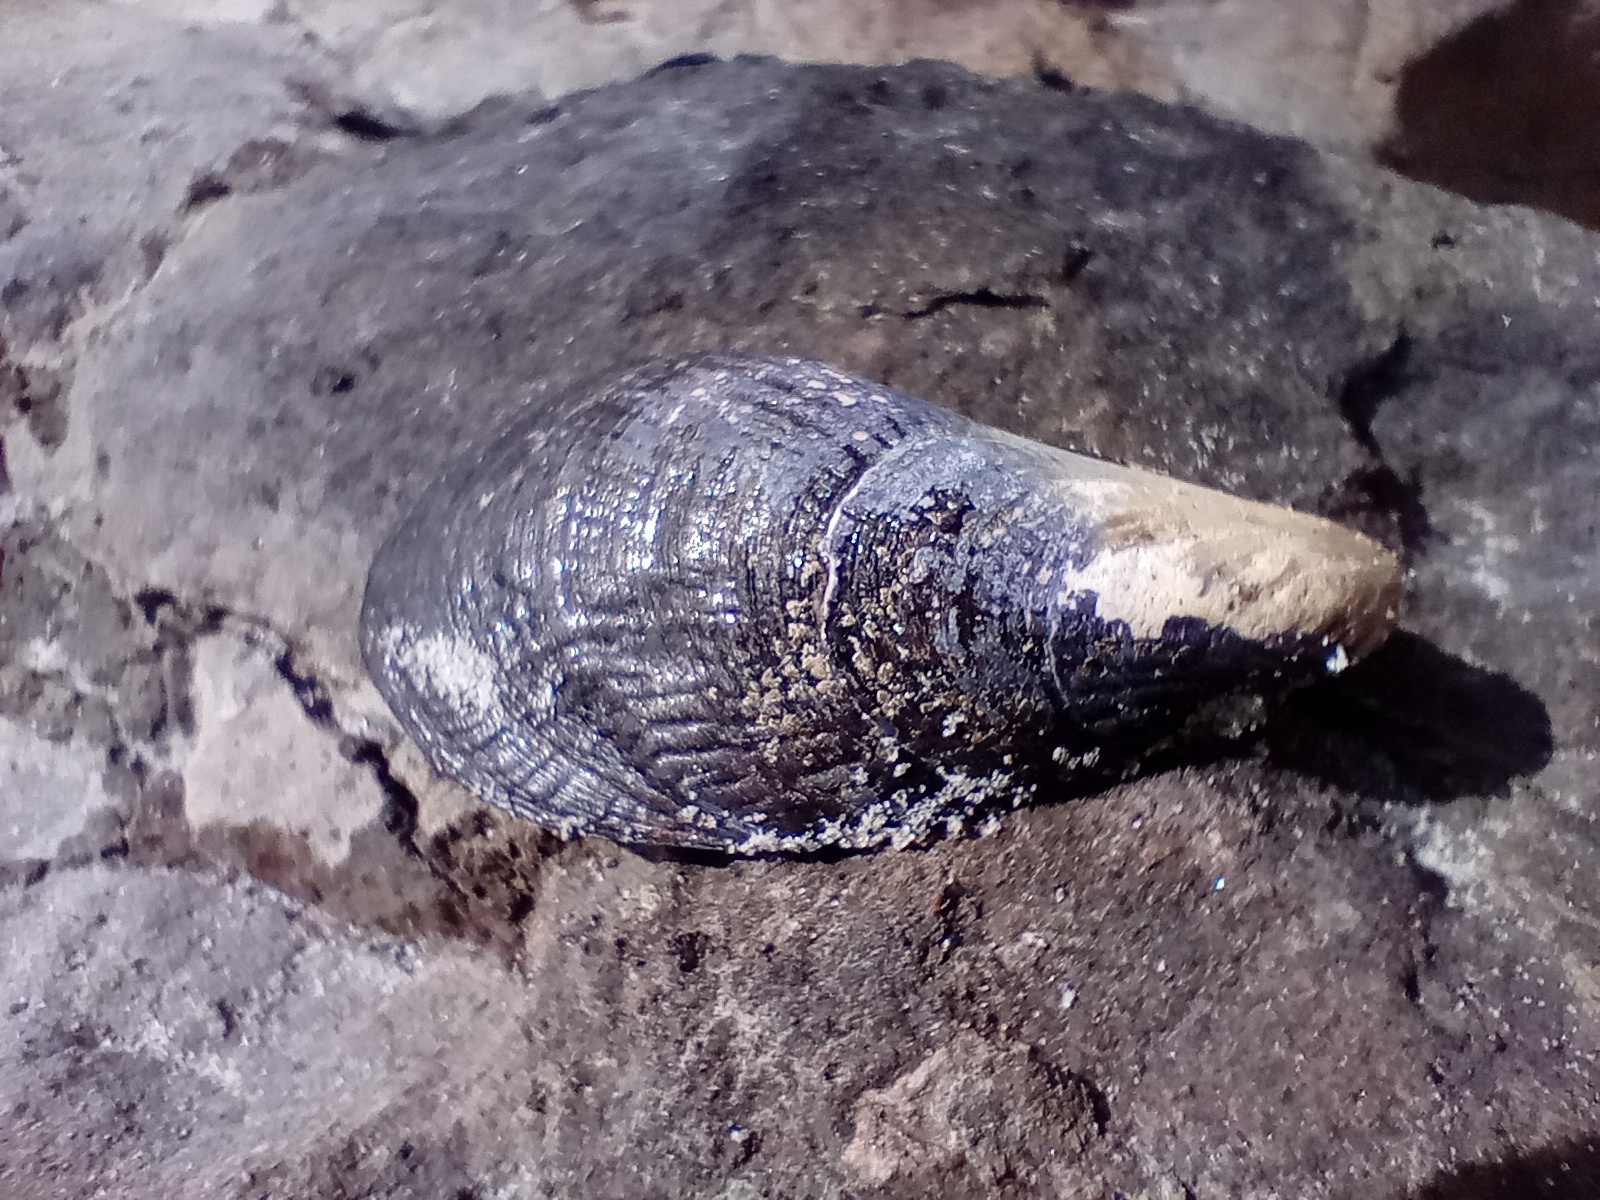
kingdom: Animalia
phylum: Mollusca
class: Bivalvia
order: Mytilida
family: Mytilidae
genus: Aulacomya
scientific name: Aulacomya maoriana
